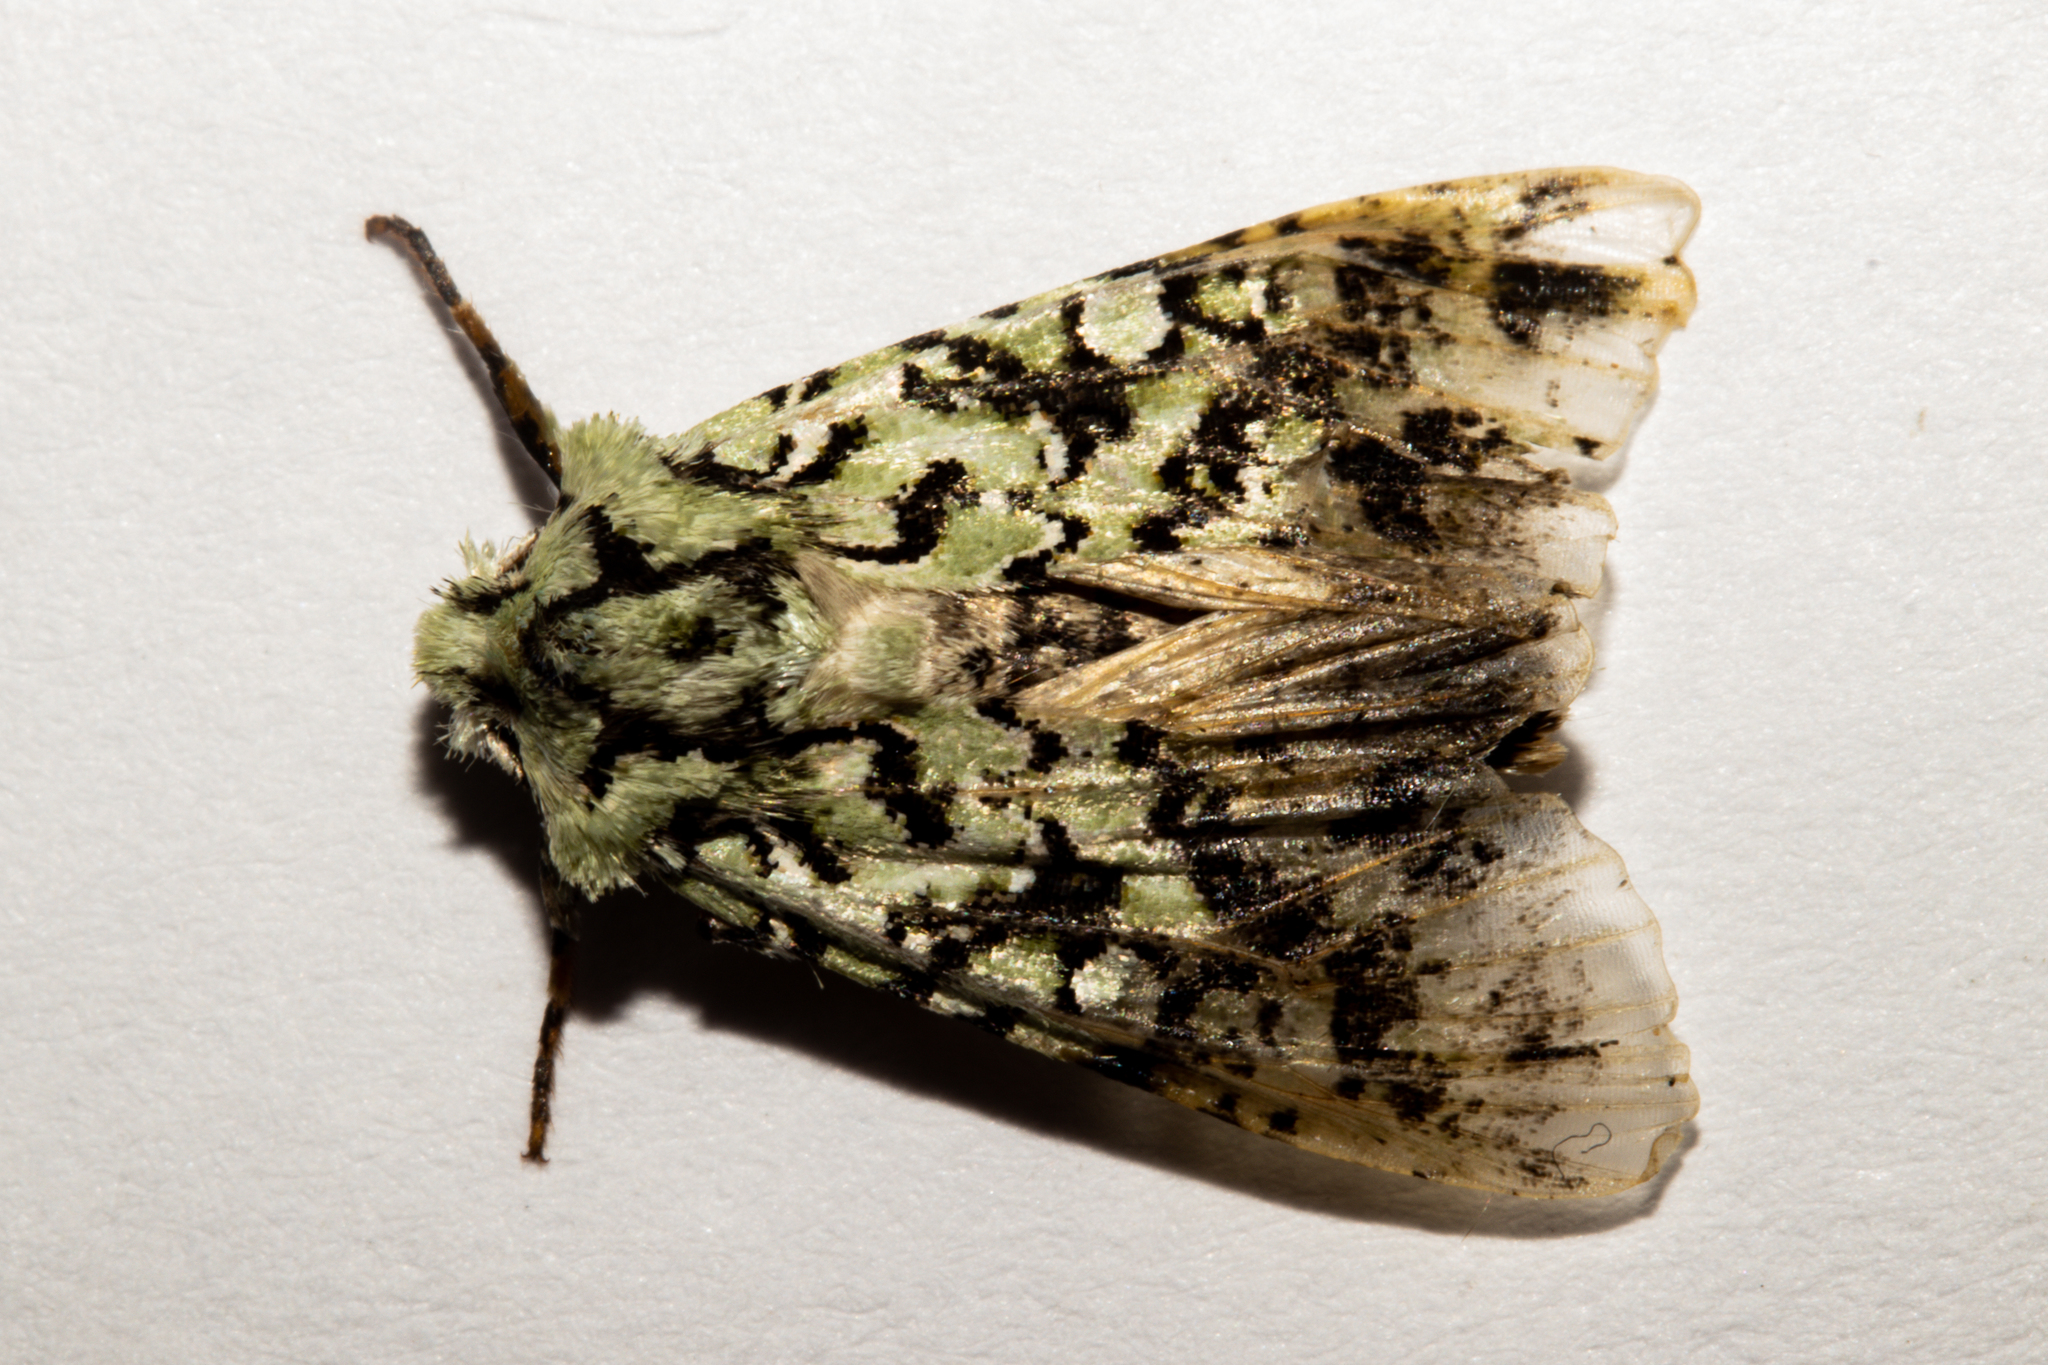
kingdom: Animalia
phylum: Arthropoda
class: Insecta
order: Lepidoptera
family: Noctuidae
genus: Meterana
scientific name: Meterana
